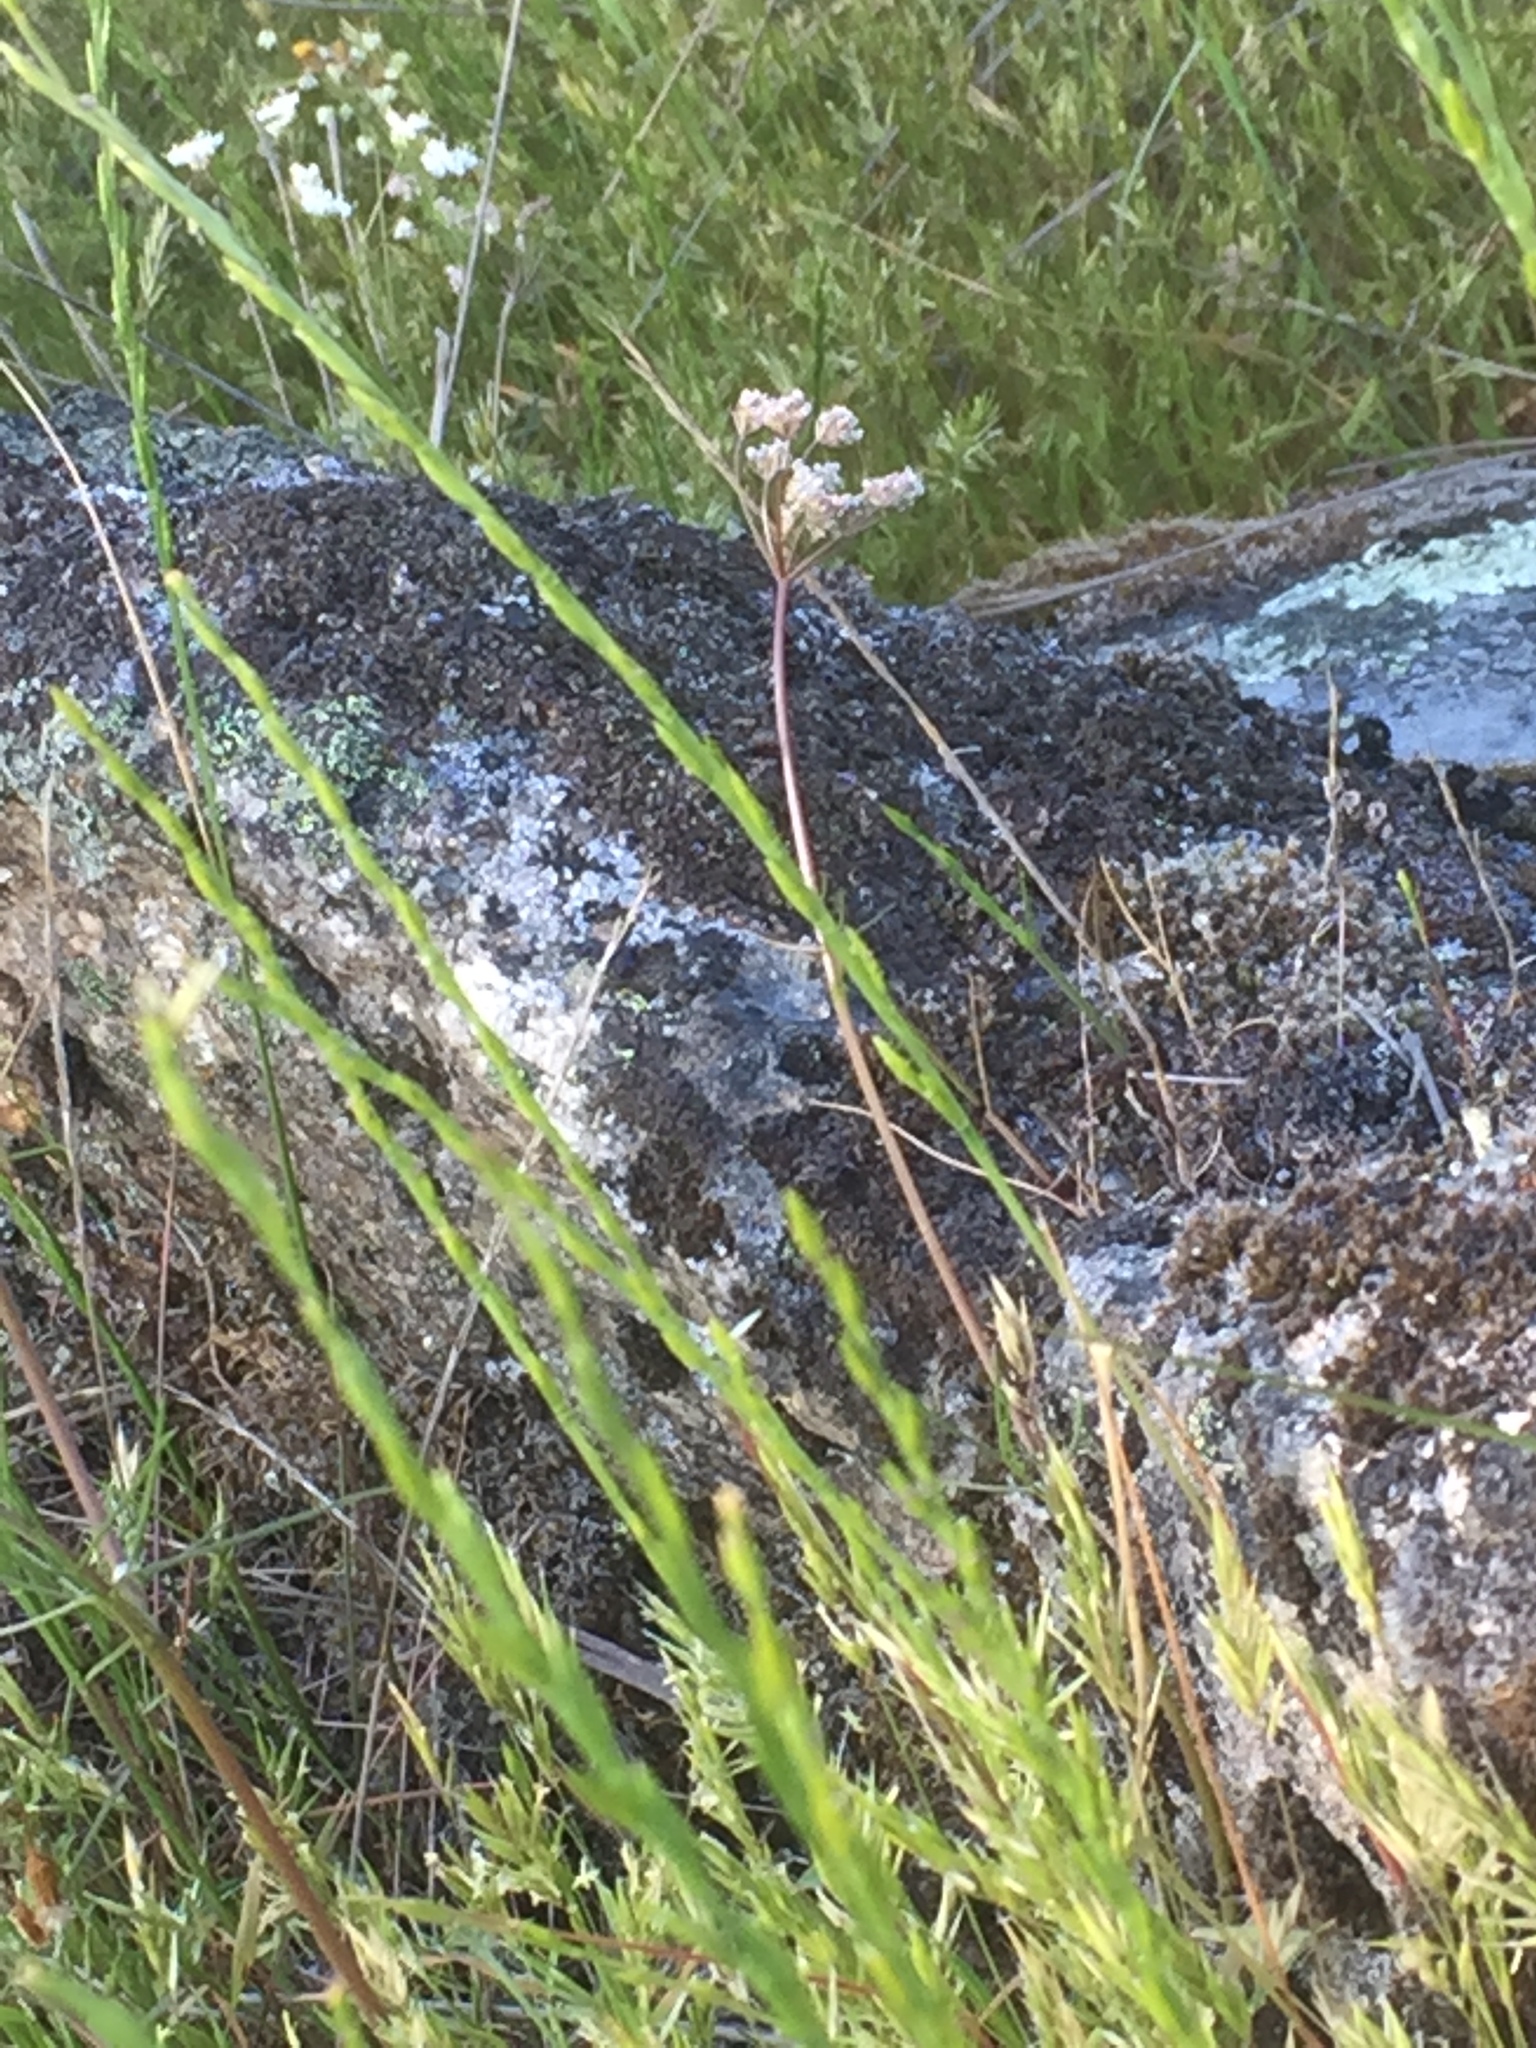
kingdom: Plantae
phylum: Tracheophyta
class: Liliopsida
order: Poales
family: Poaceae
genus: Festuca
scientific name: Festuca lachenalii
